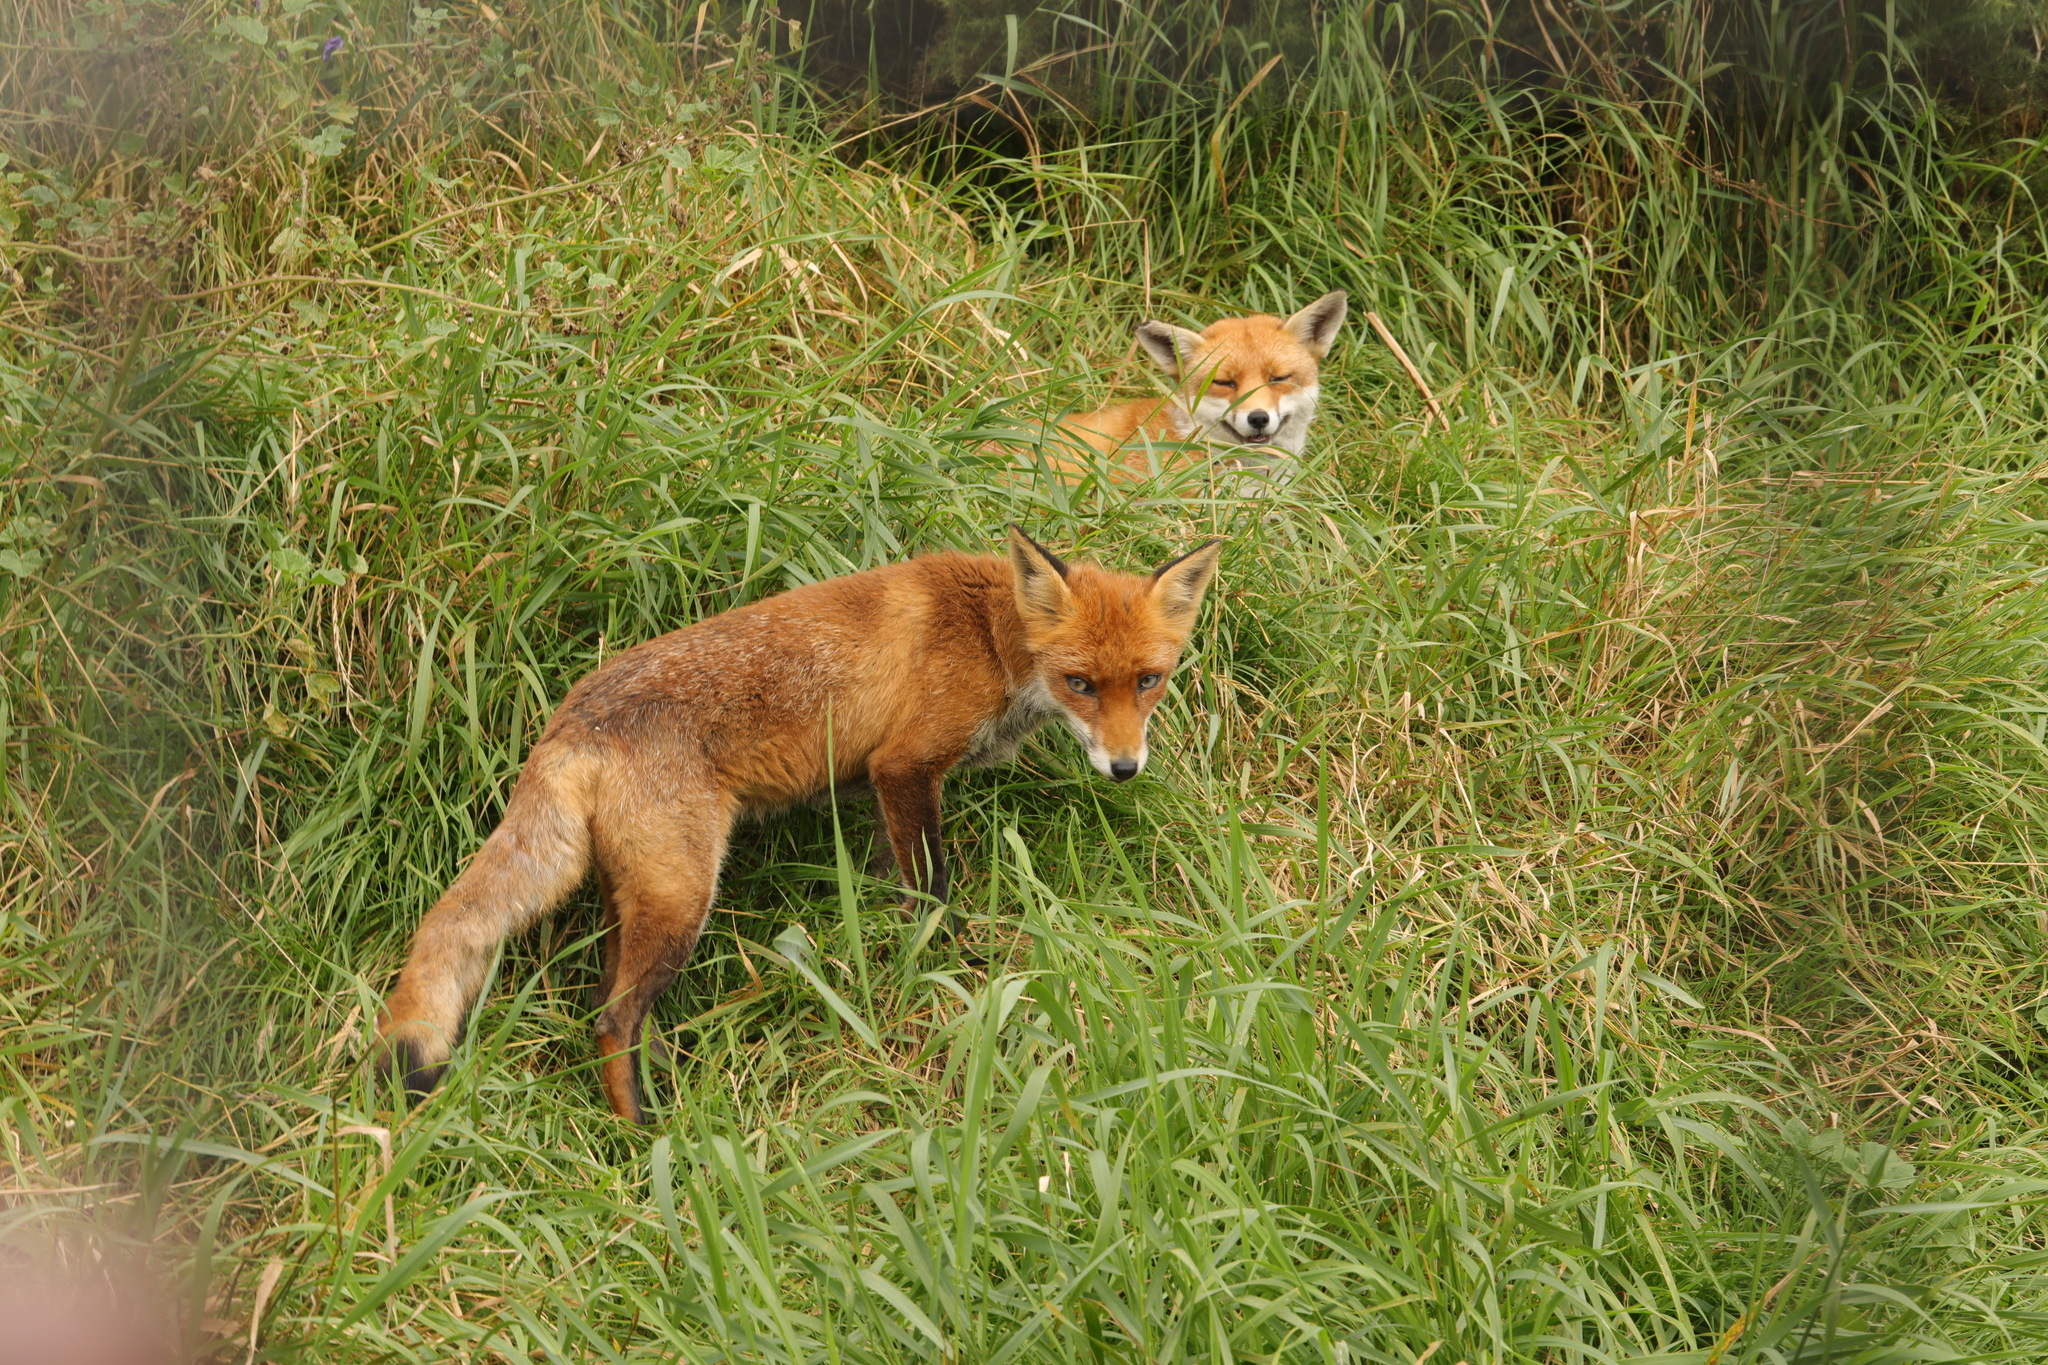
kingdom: Animalia
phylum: Chordata
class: Mammalia
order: Carnivora
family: Canidae
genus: Vulpes
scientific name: Vulpes vulpes
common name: Red fox
